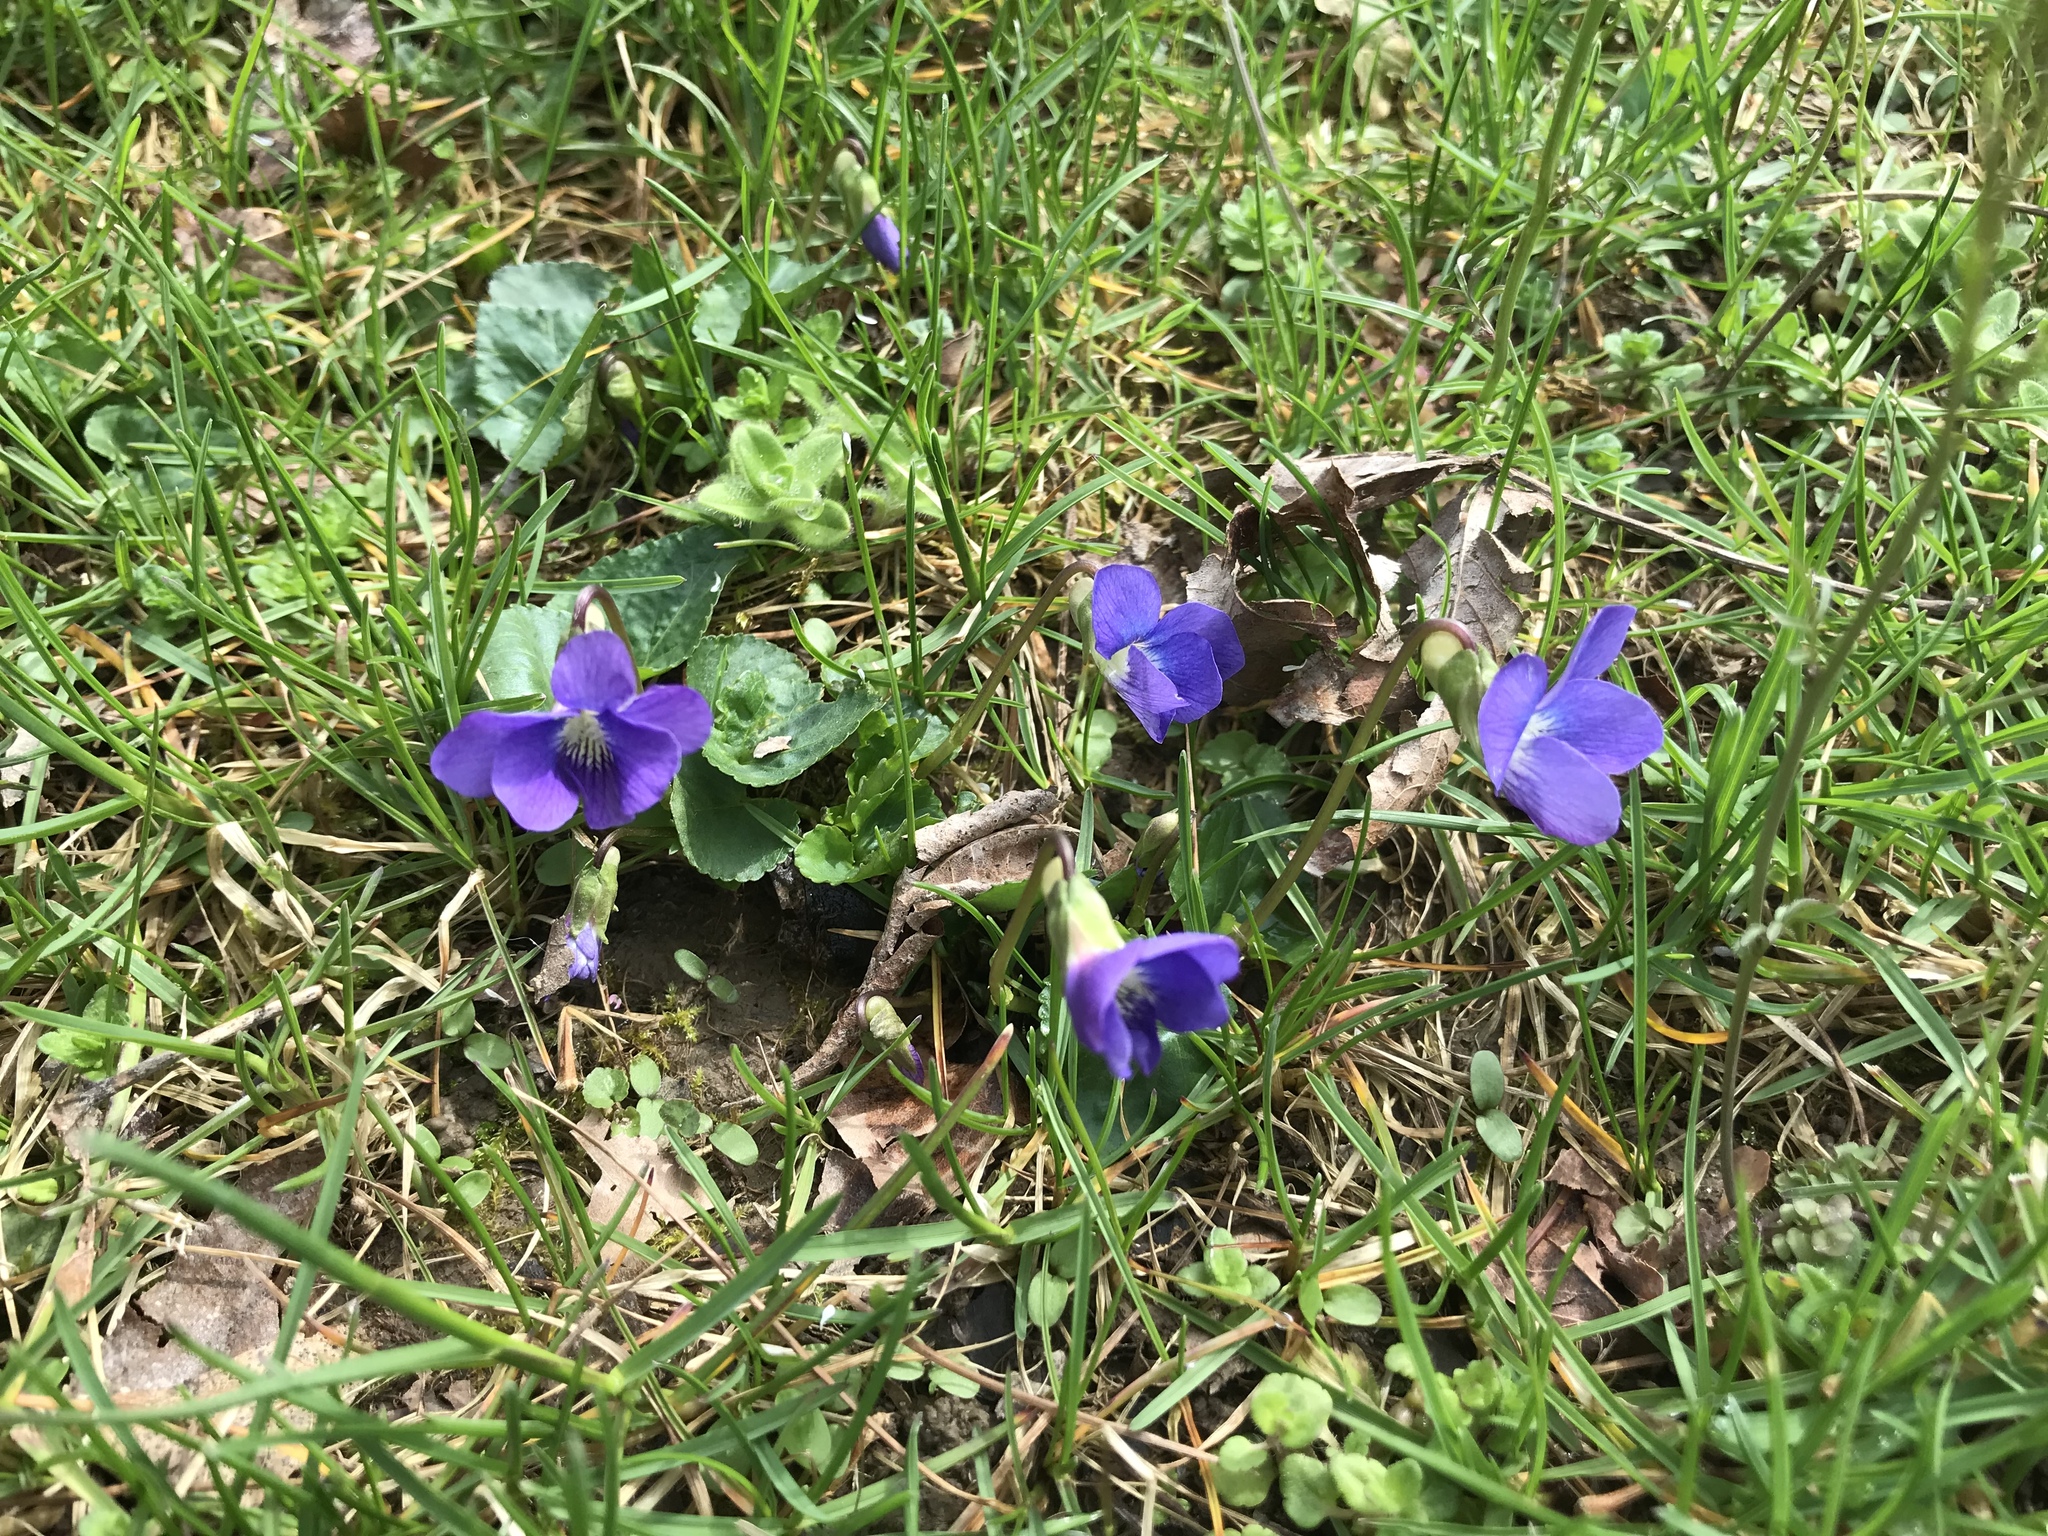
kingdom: Plantae
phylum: Tracheophyta
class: Magnoliopsida
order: Malpighiales
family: Violaceae
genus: Viola
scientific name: Viola sororia
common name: Dooryard violet
